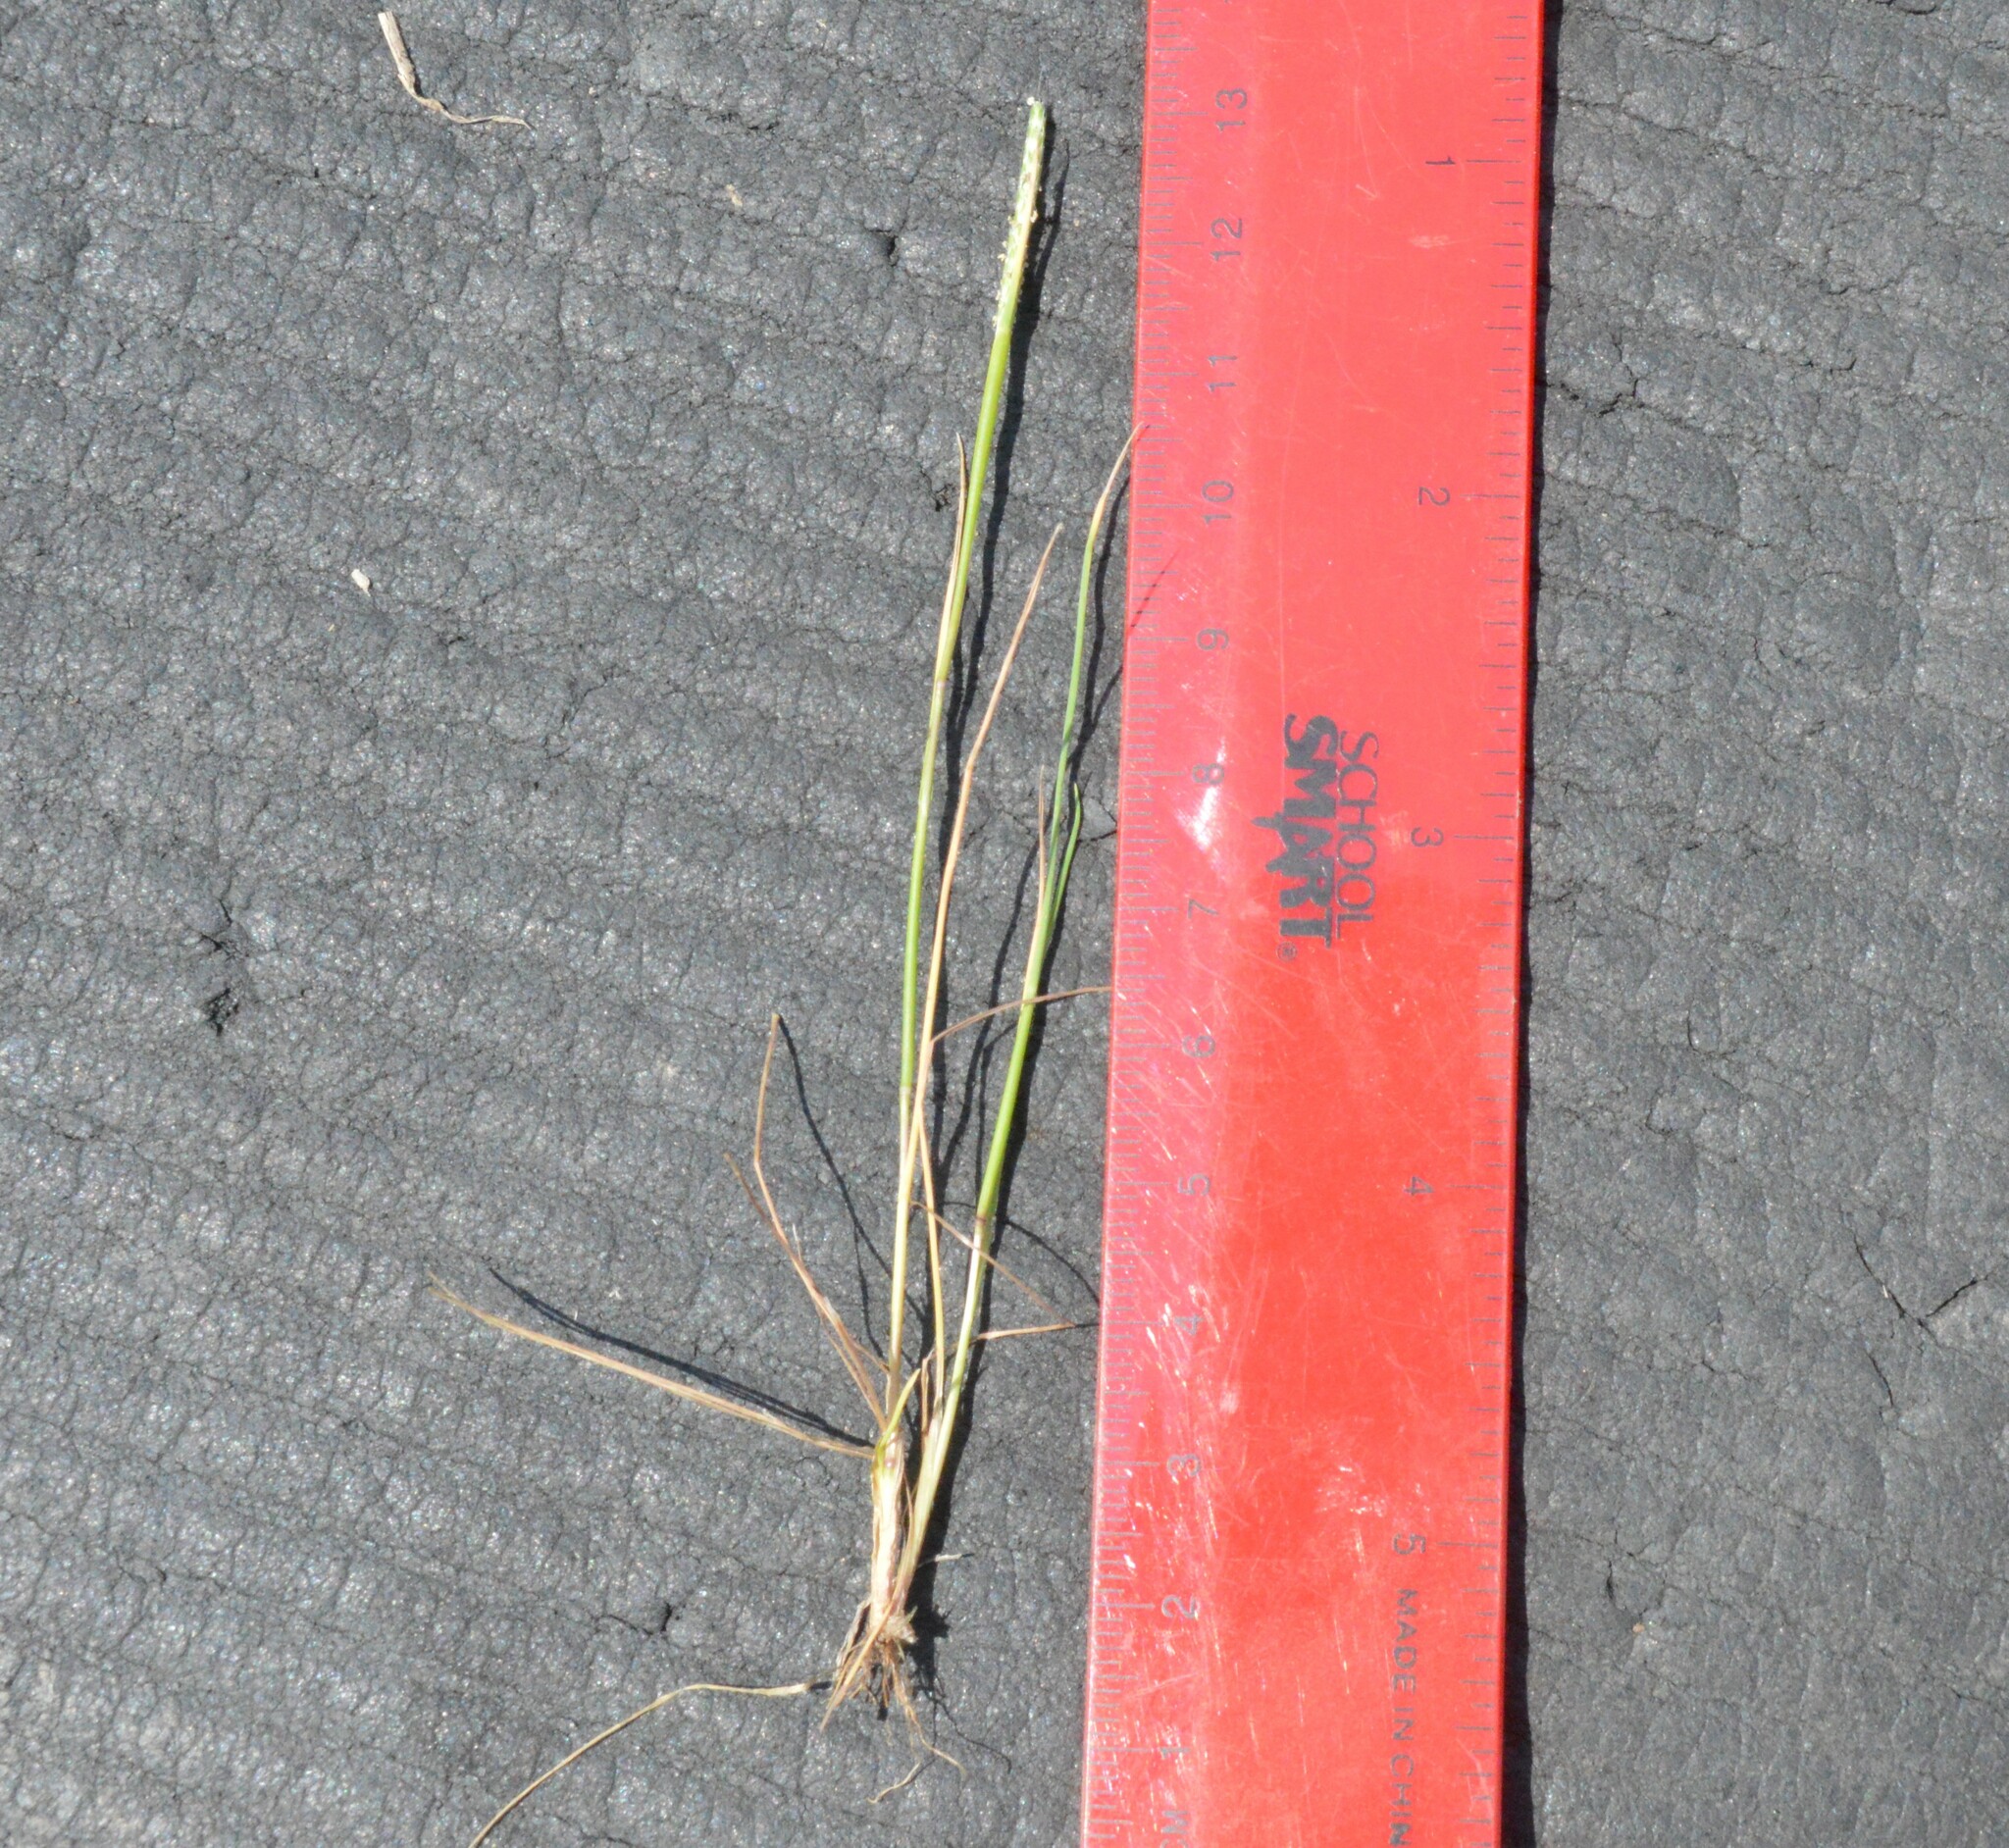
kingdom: Plantae
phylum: Tracheophyta
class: Liliopsida
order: Poales
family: Poaceae
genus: Alopecurus
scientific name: Alopecurus carolinianus
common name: Tufted foxtail
